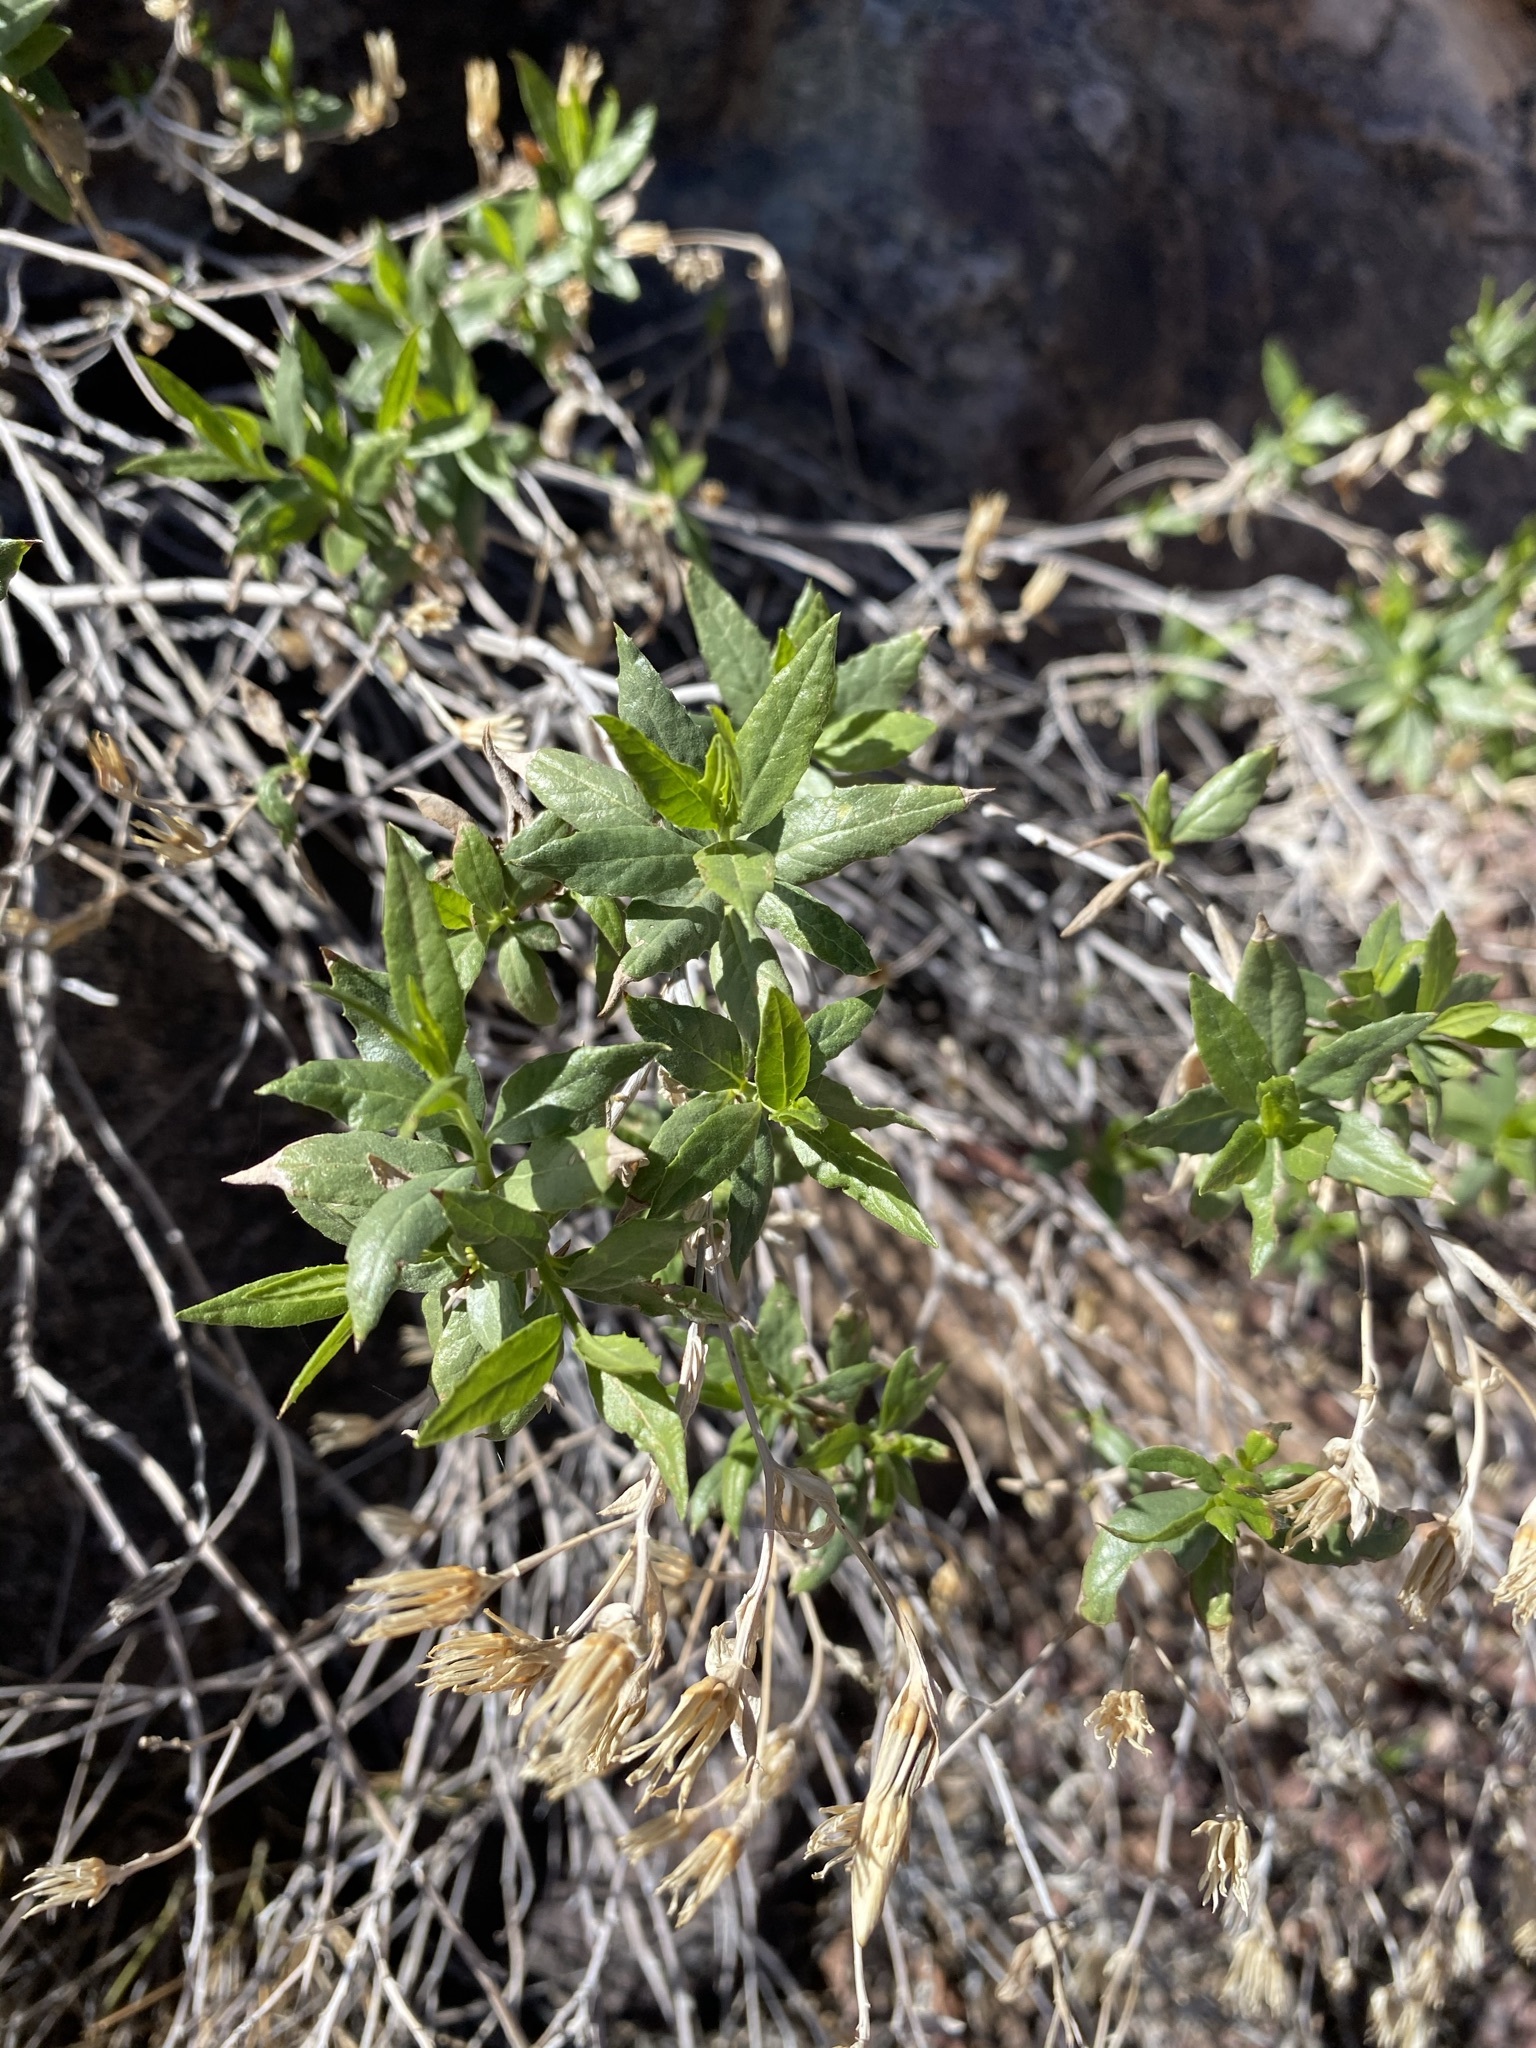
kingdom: Plantae
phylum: Tracheophyta
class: Magnoliopsida
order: Asterales
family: Asteraceae
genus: Trixis
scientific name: Trixis californica
